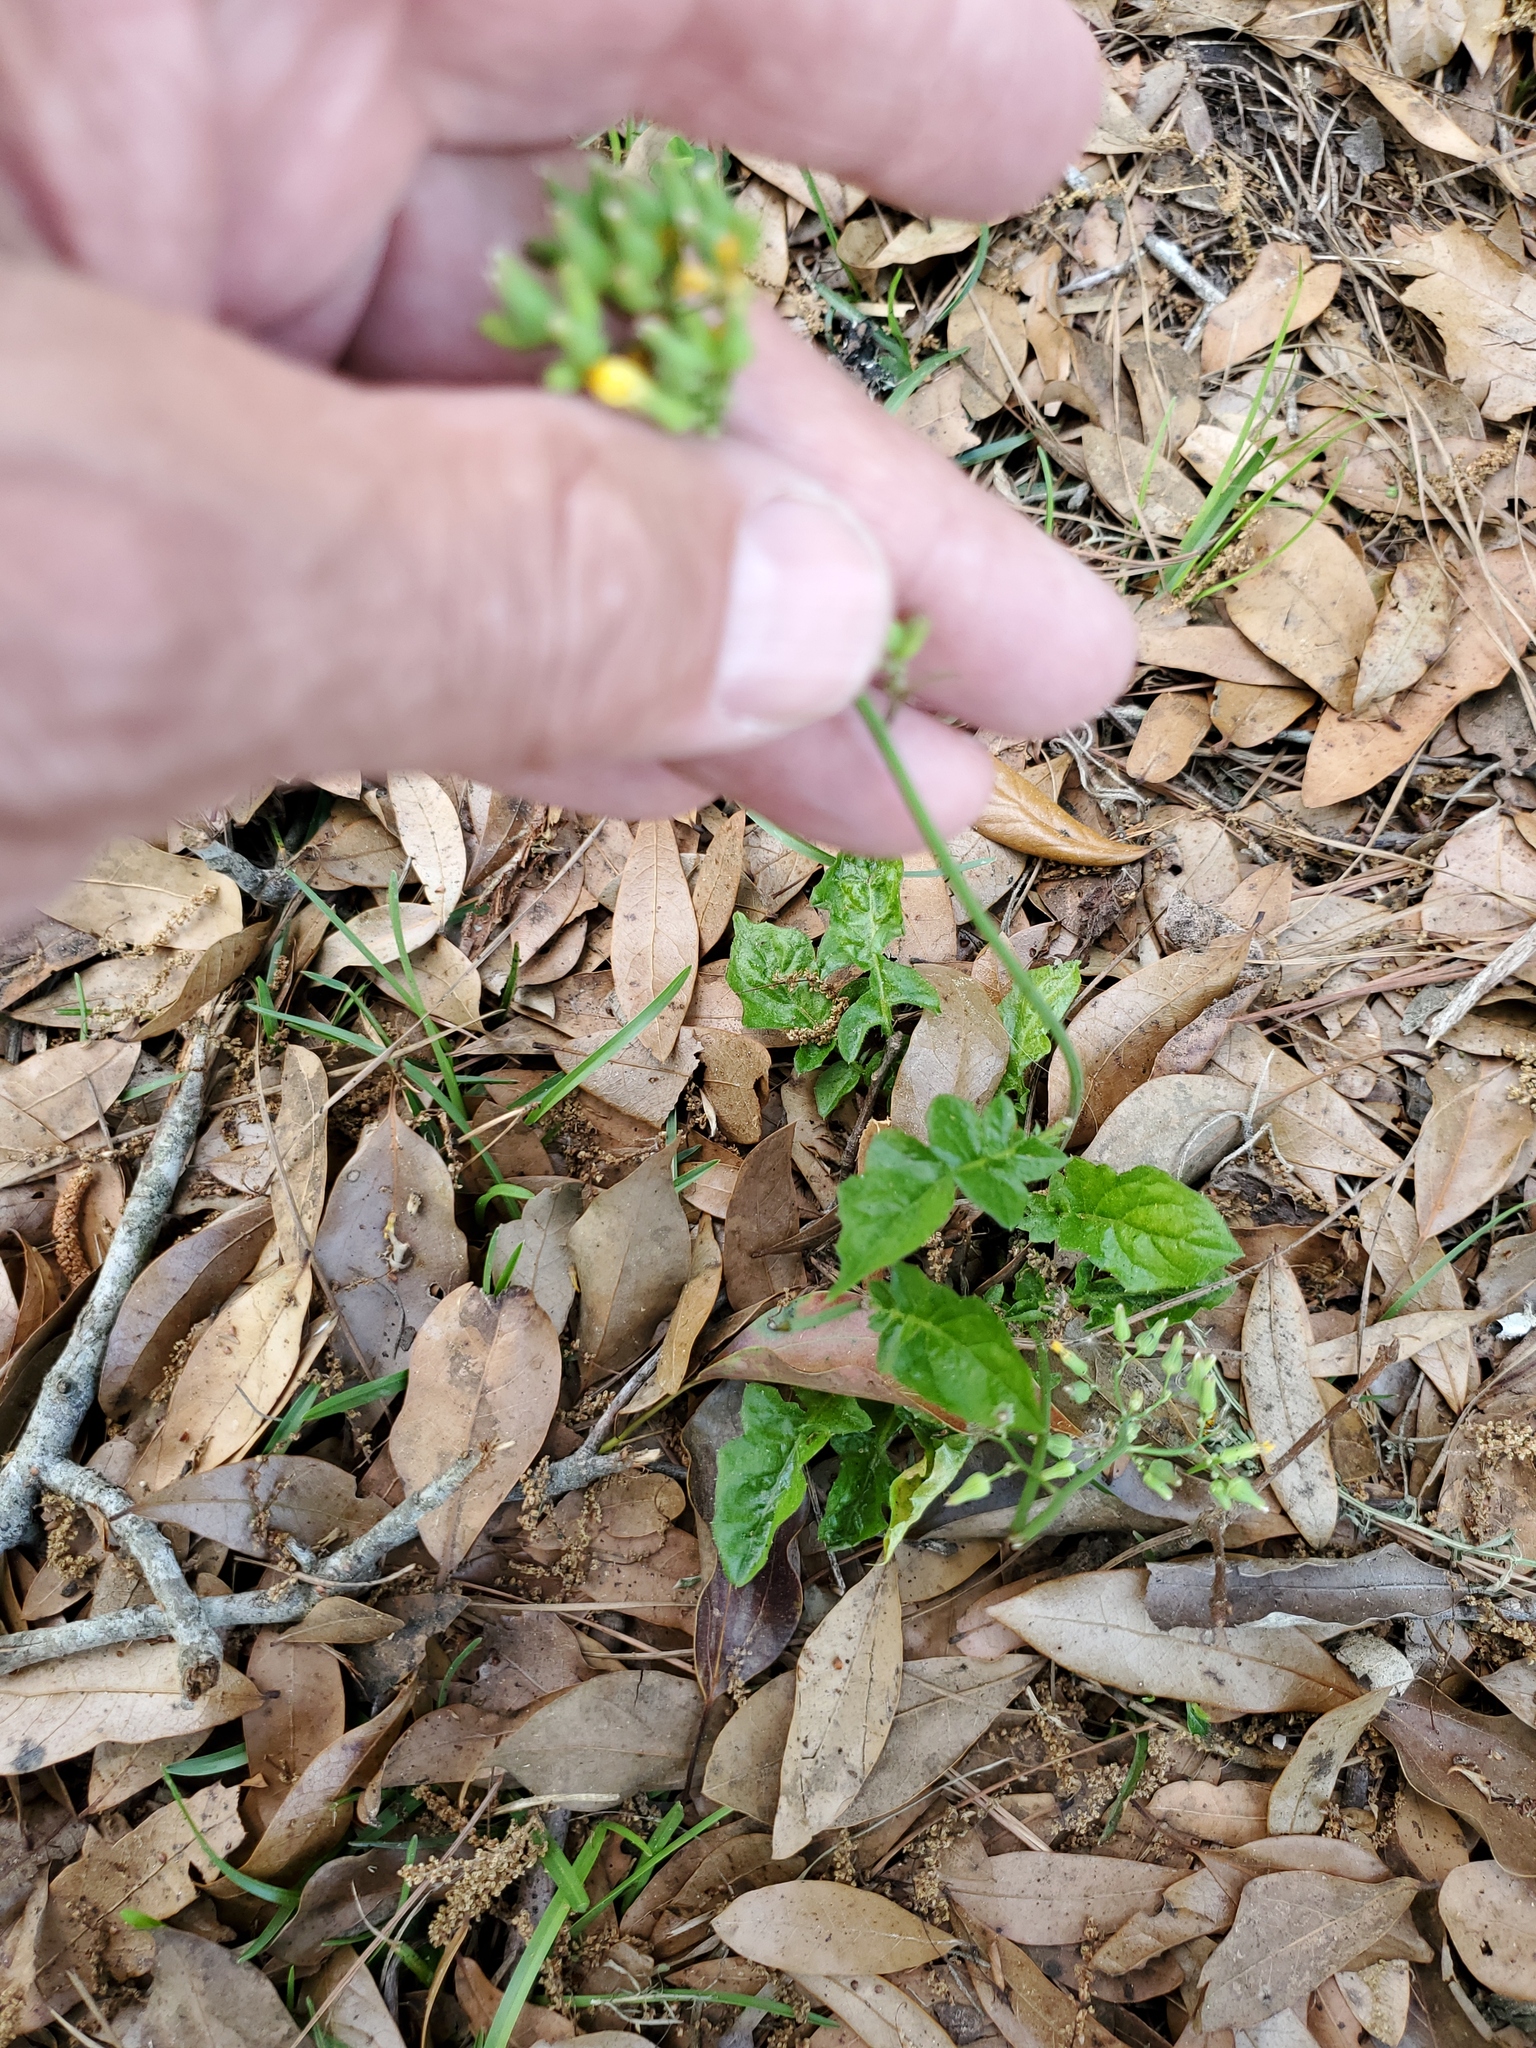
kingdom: Plantae
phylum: Tracheophyta
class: Magnoliopsida
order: Asterales
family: Asteraceae
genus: Youngia
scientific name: Youngia japonica
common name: Oriental false hawksbeard
